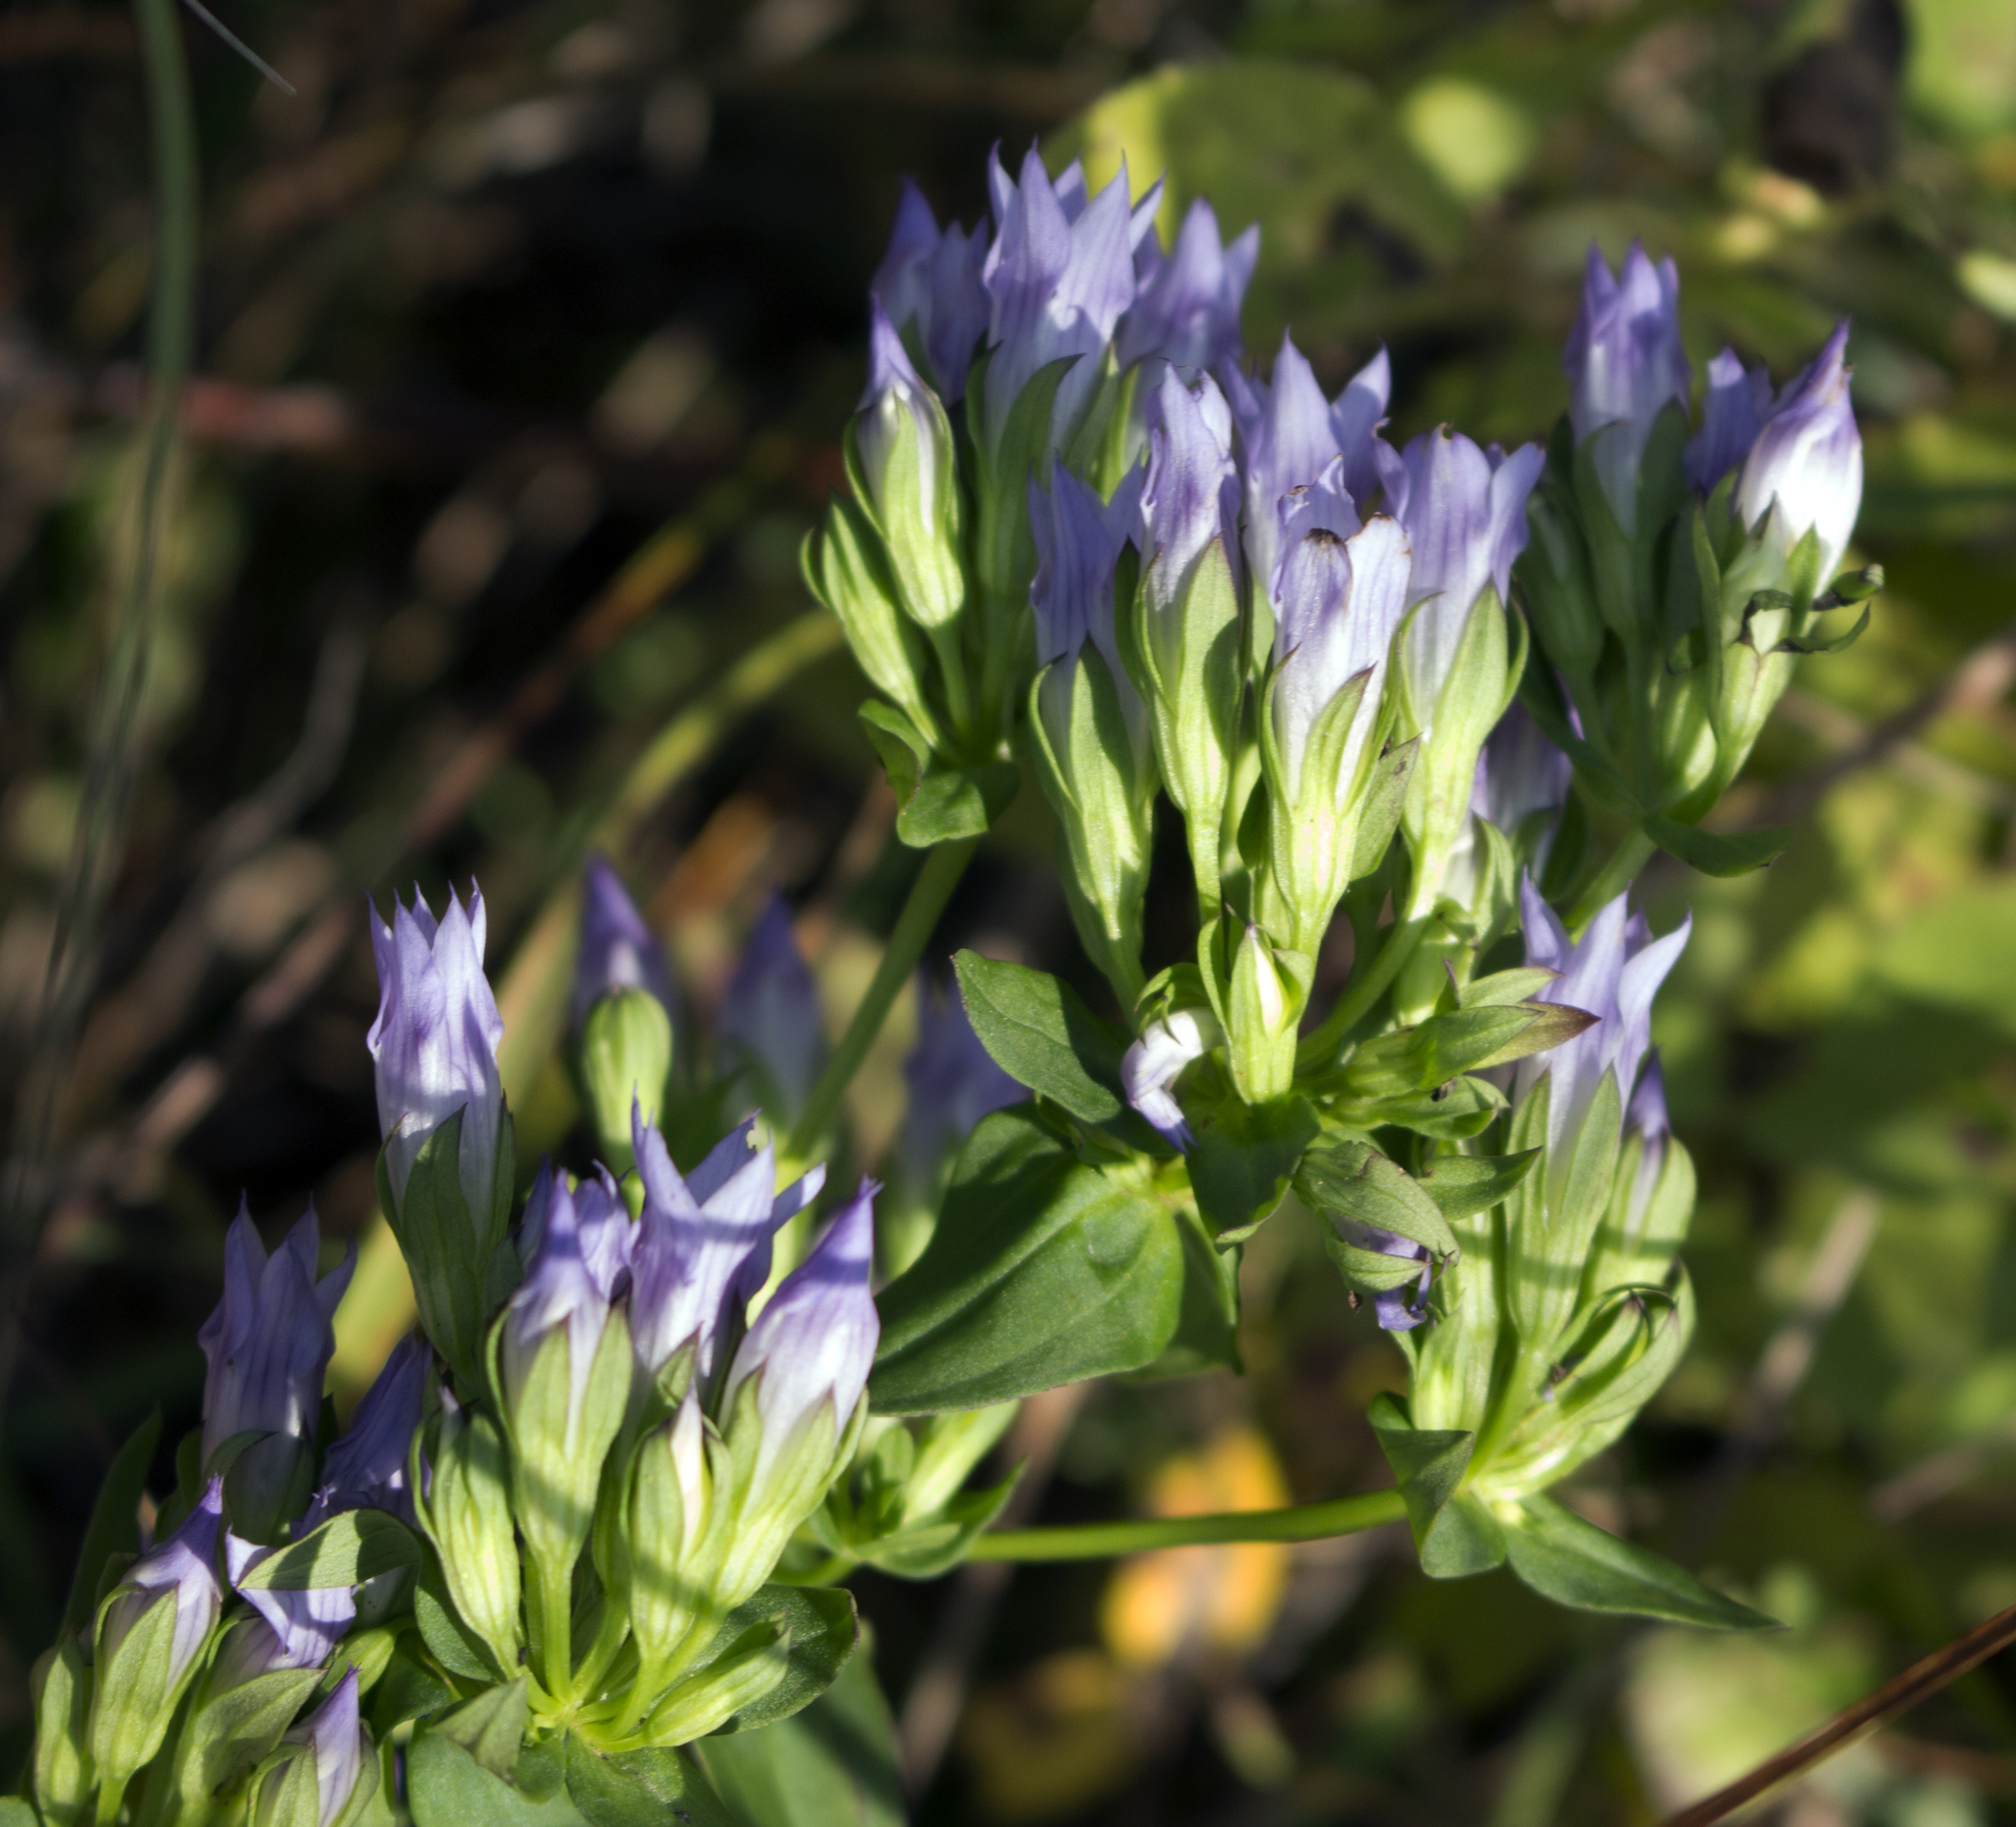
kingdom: Plantae
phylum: Tracheophyta
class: Magnoliopsida
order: Gentianales
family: Gentianaceae
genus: Gentianella
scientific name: Gentianella quinquefolia
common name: Agueweed
